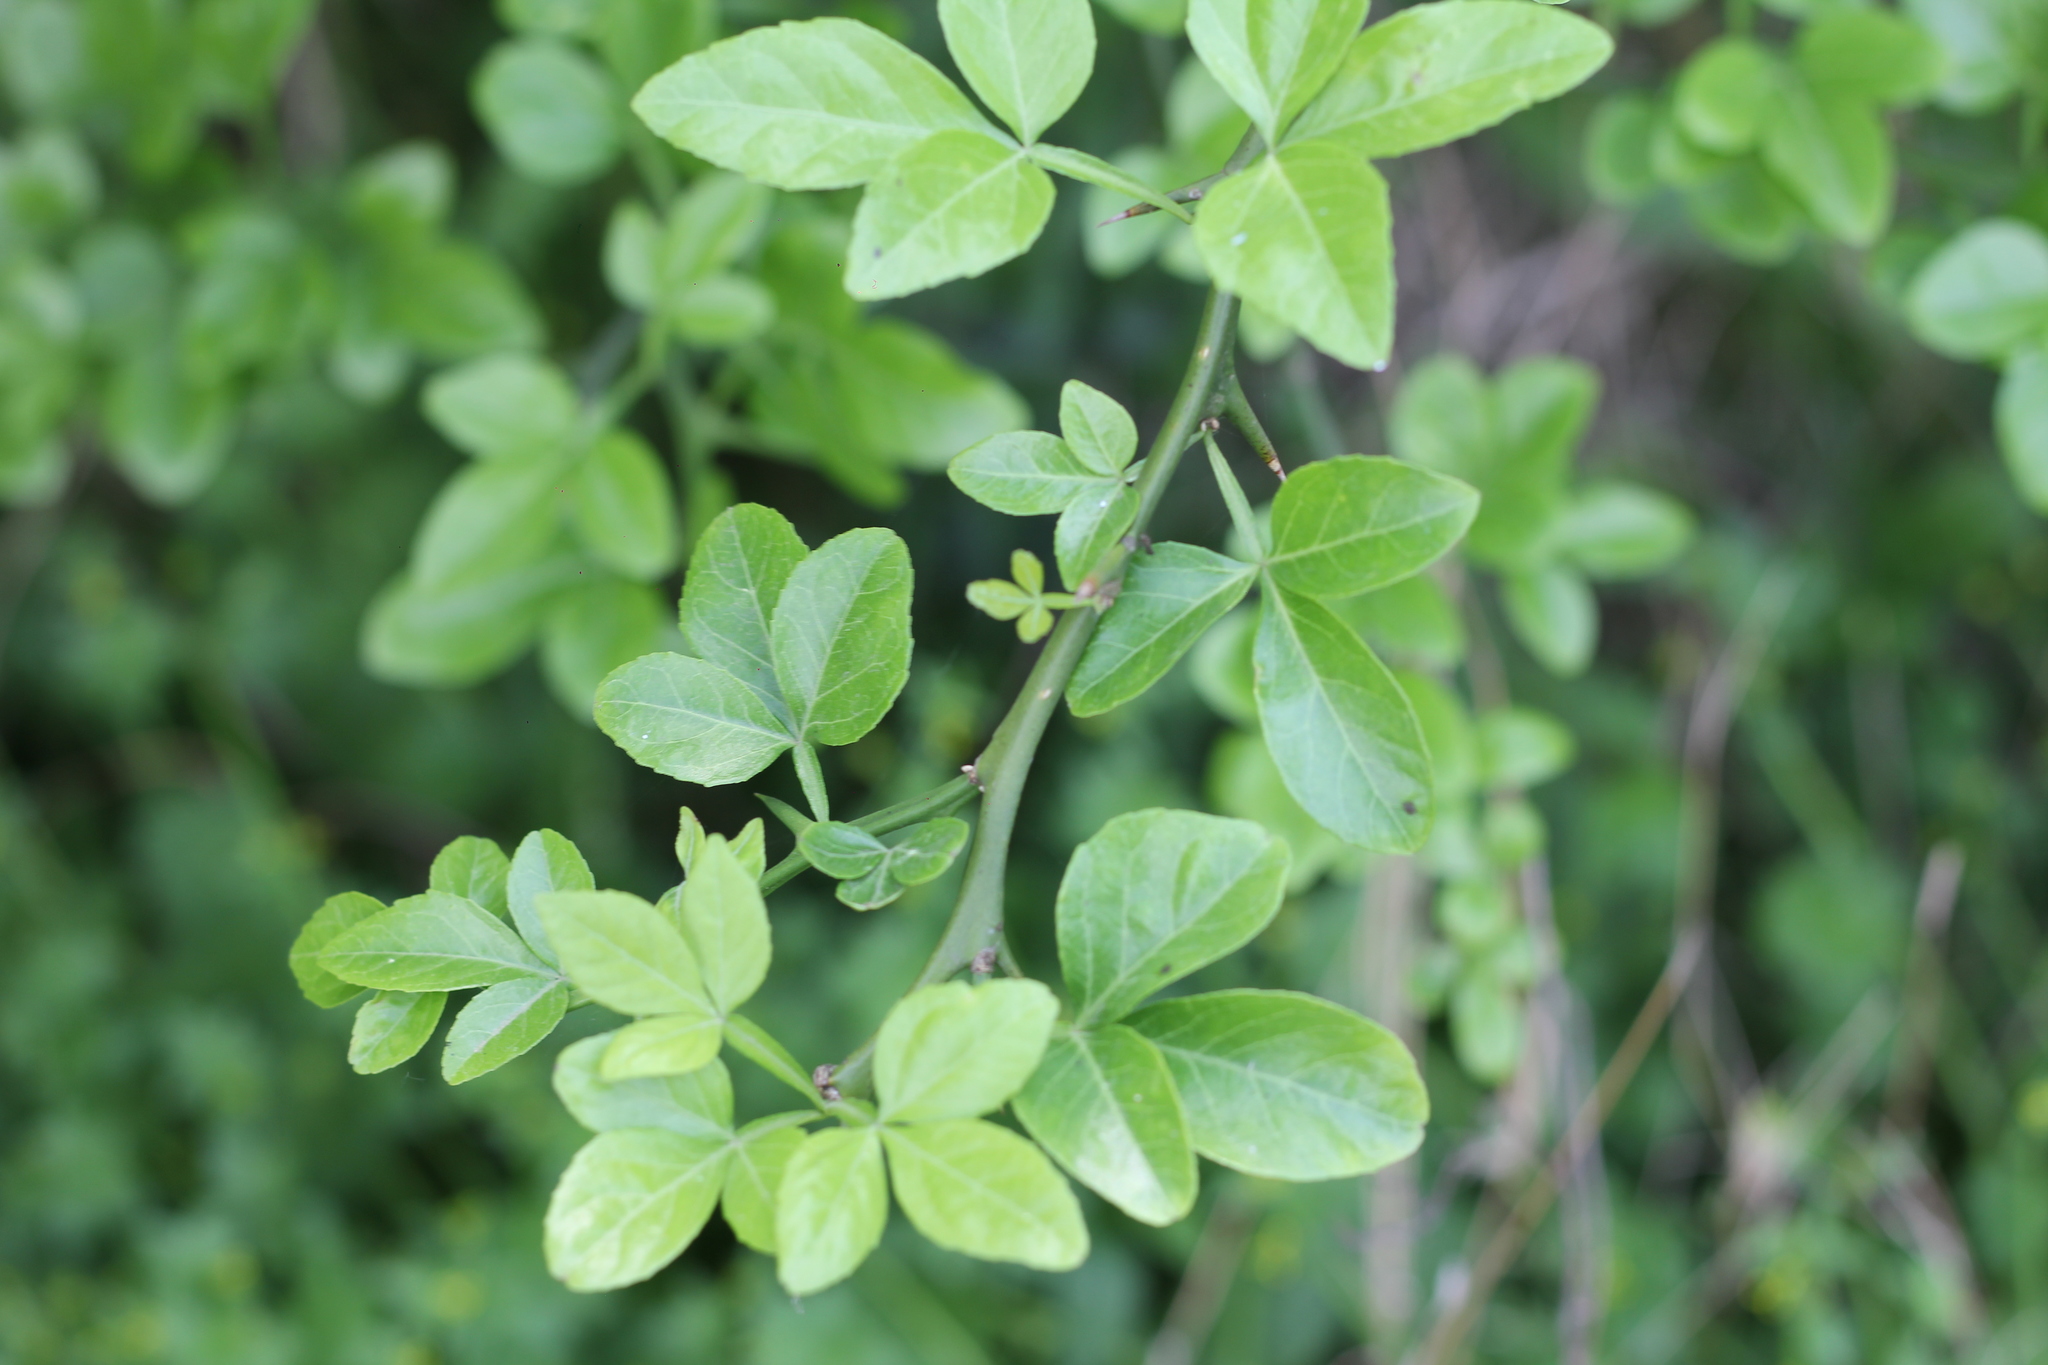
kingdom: Plantae
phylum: Tracheophyta
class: Magnoliopsida
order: Sapindales
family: Rutaceae
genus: Citrus
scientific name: Citrus trifoliata
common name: Japanese bitter-orange
